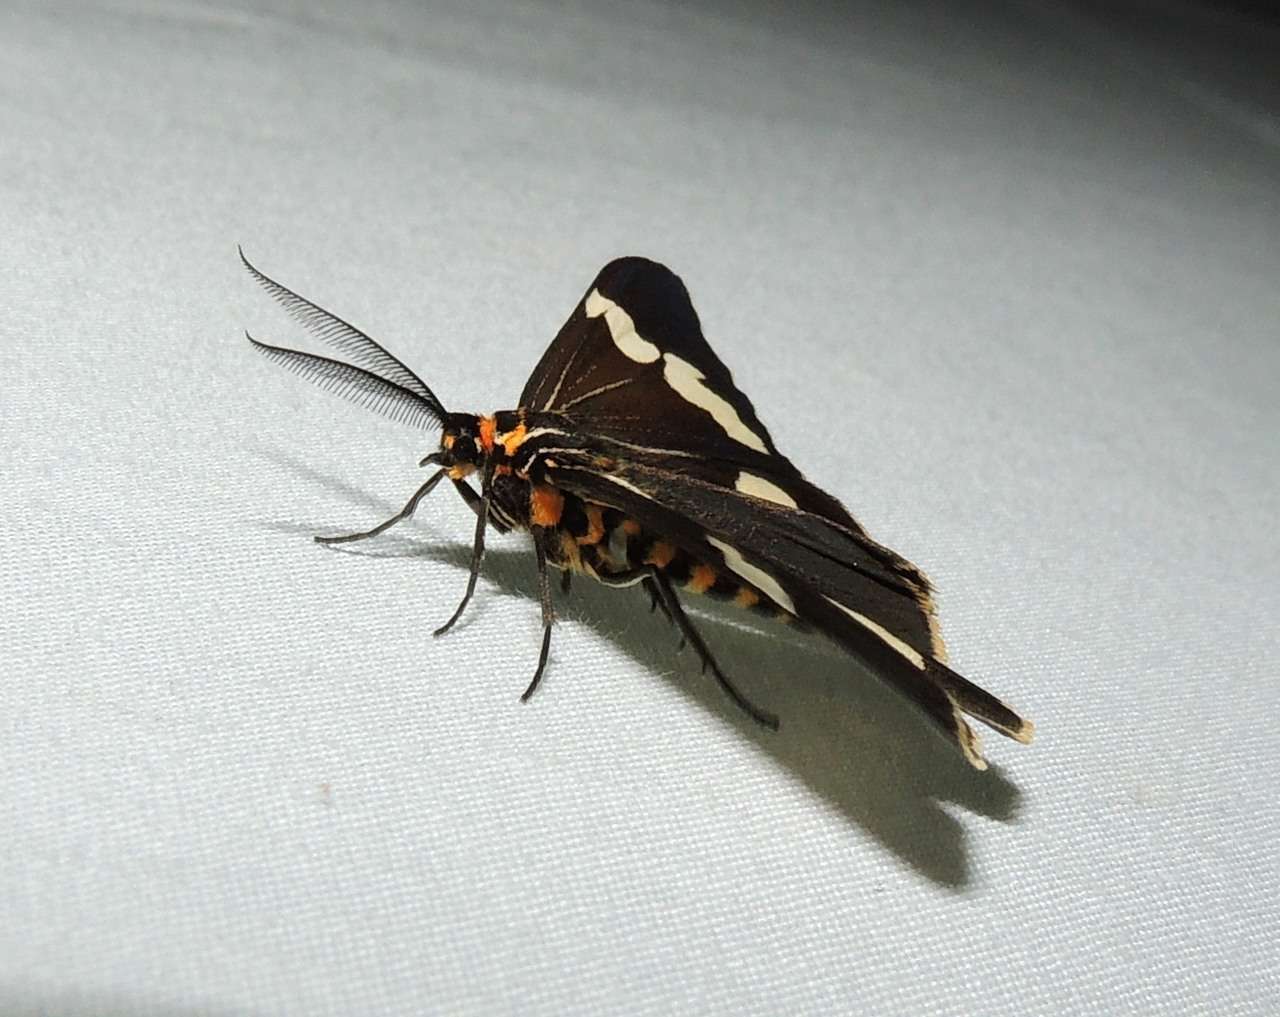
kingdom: Animalia
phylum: Arthropoda
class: Insecta
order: Lepidoptera
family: Erebidae
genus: Nyctemera
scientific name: Nyctemera amicus
